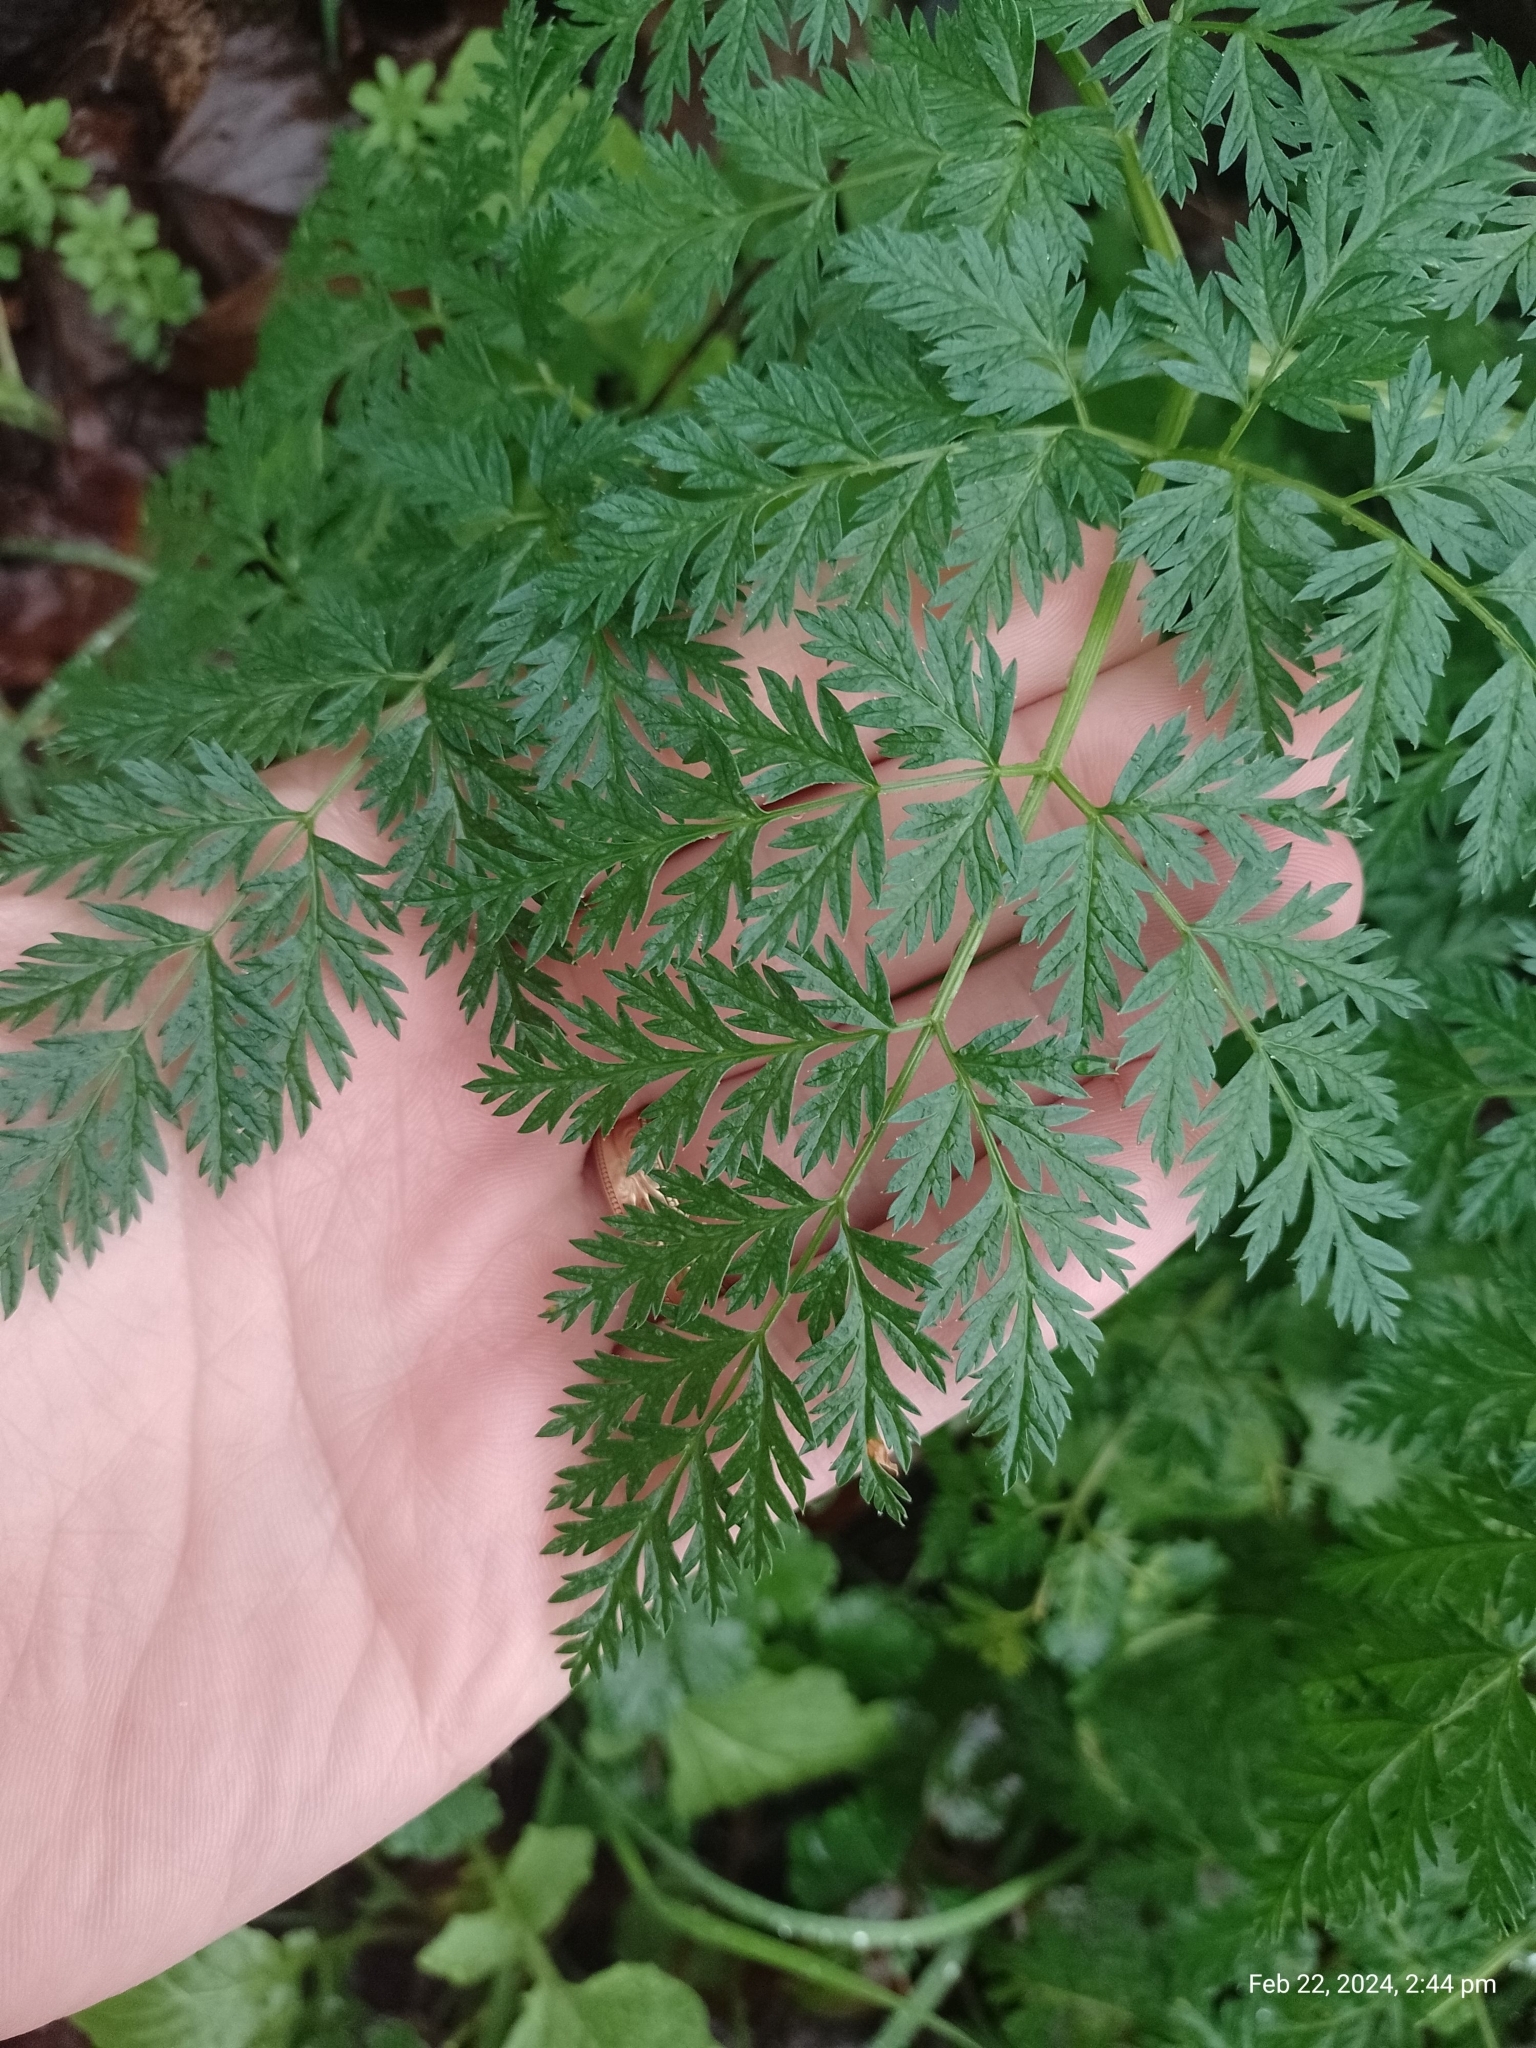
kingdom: Plantae
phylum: Tracheophyta
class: Magnoliopsida
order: Apiales
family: Apiaceae
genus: Conium
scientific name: Conium maculatum
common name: Hemlock
